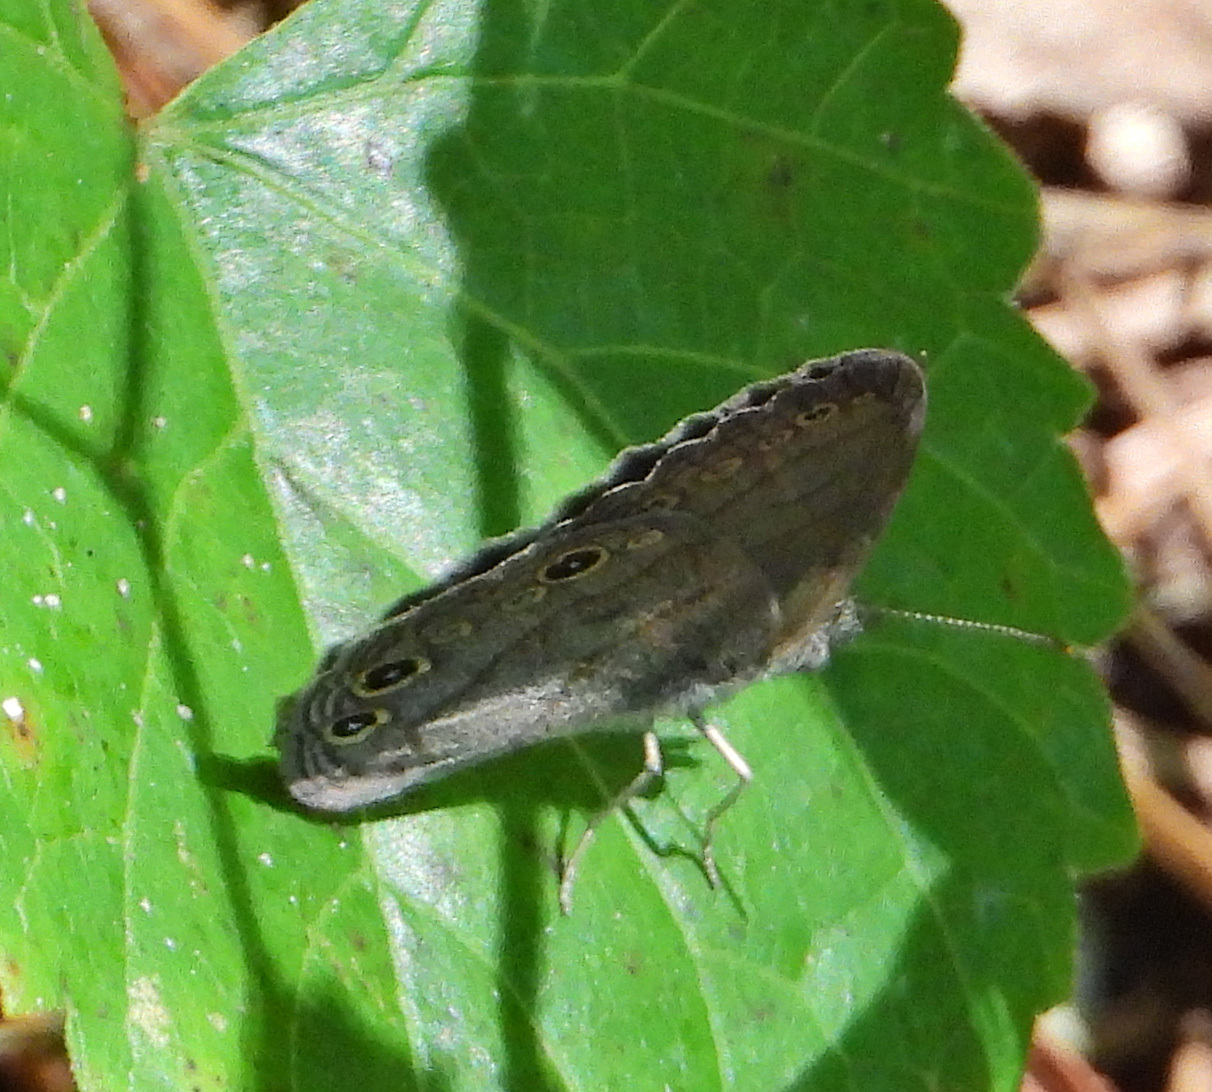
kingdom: Animalia
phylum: Arthropoda
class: Insecta
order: Lepidoptera
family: Nymphalidae
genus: Hermeuptychia
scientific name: Hermeuptychia hermes
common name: Hermes satyr
